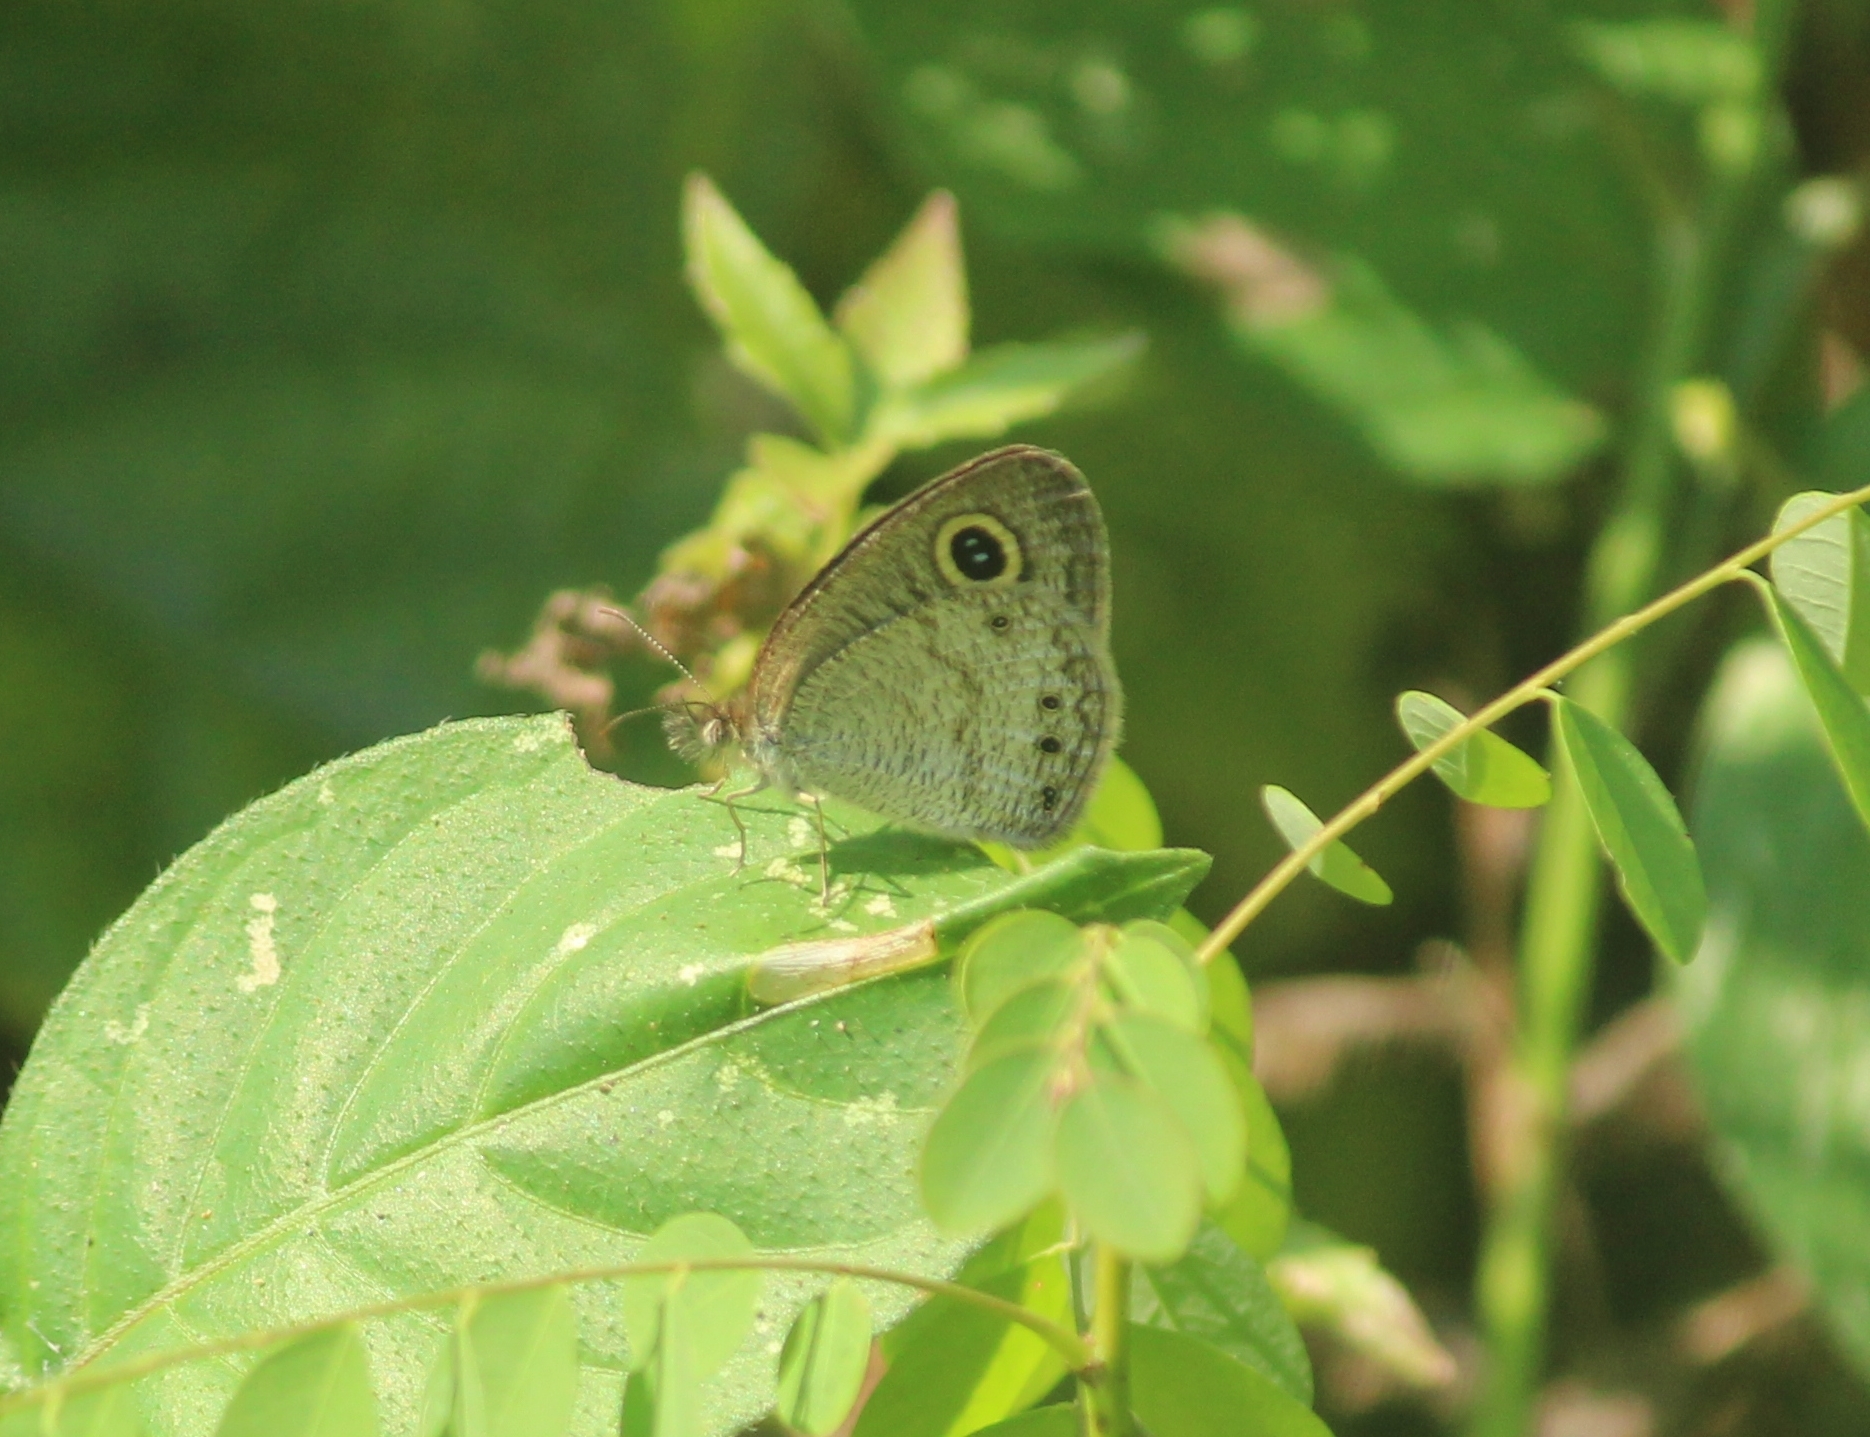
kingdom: Animalia
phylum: Arthropoda
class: Insecta
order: Lepidoptera
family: Nymphalidae
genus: Ypthima
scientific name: Ypthima huebneri
